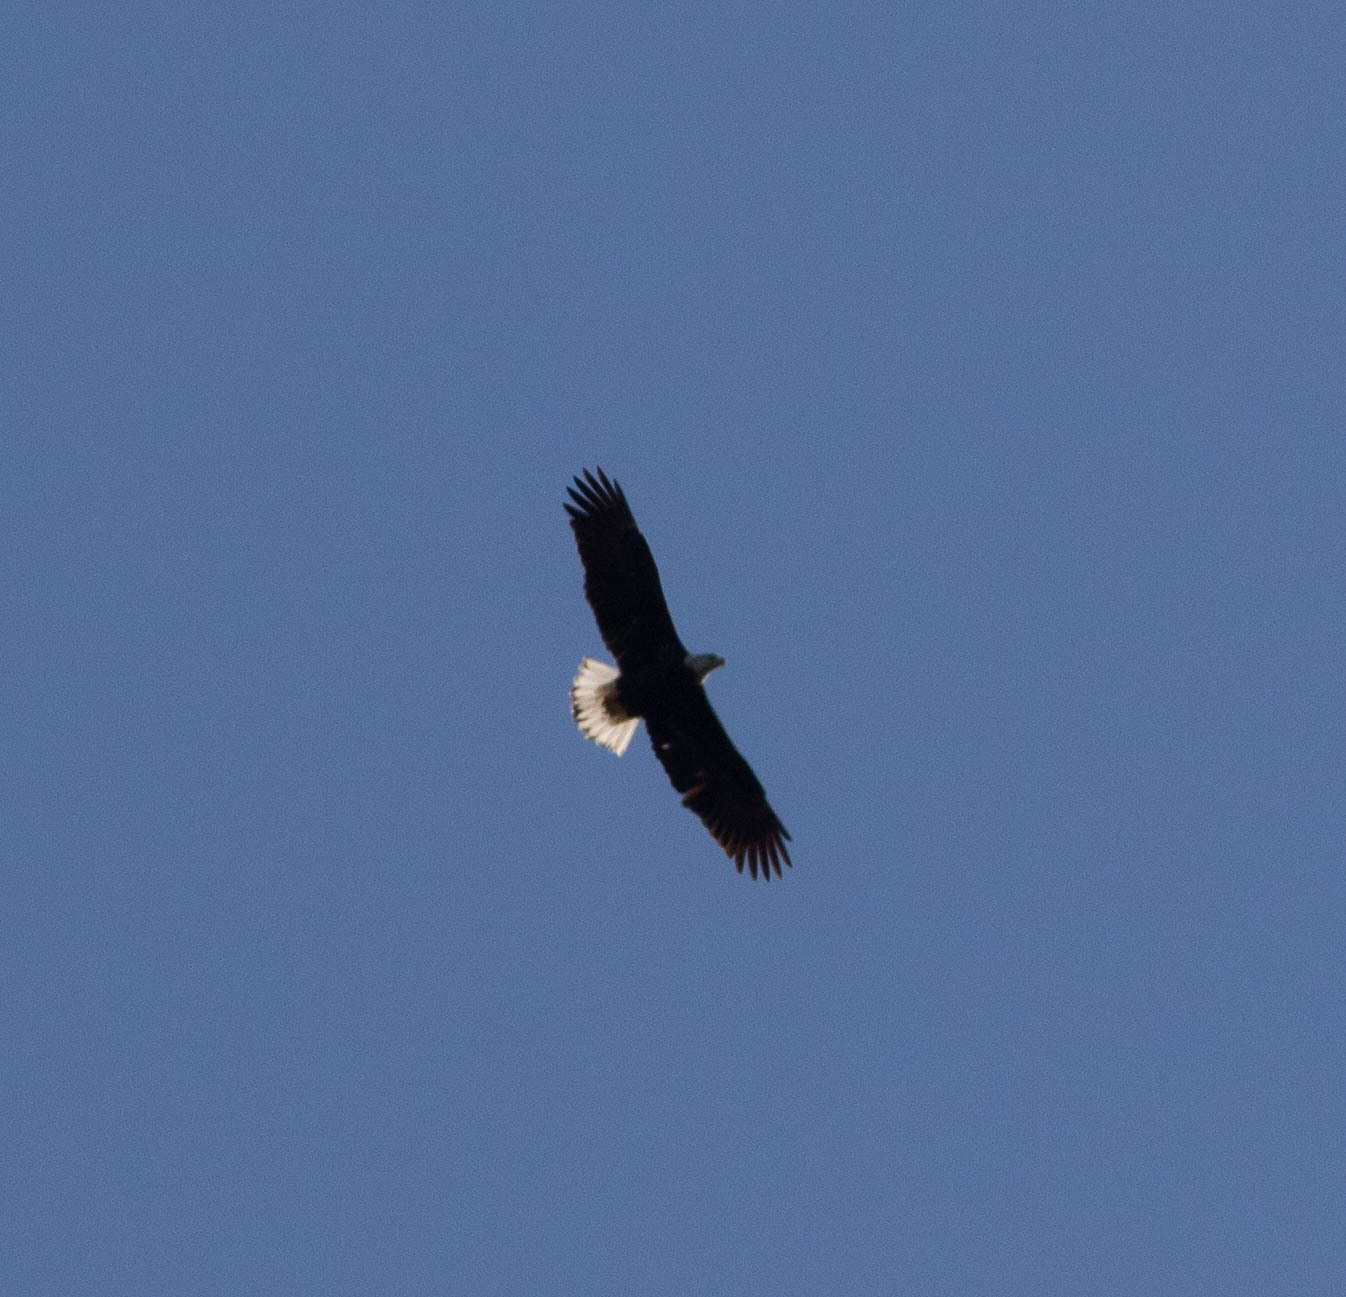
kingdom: Animalia
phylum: Chordata
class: Aves
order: Accipitriformes
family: Accipitridae
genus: Haliaeetus
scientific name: Haliaeetus leucocephalus
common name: Bald eagle
